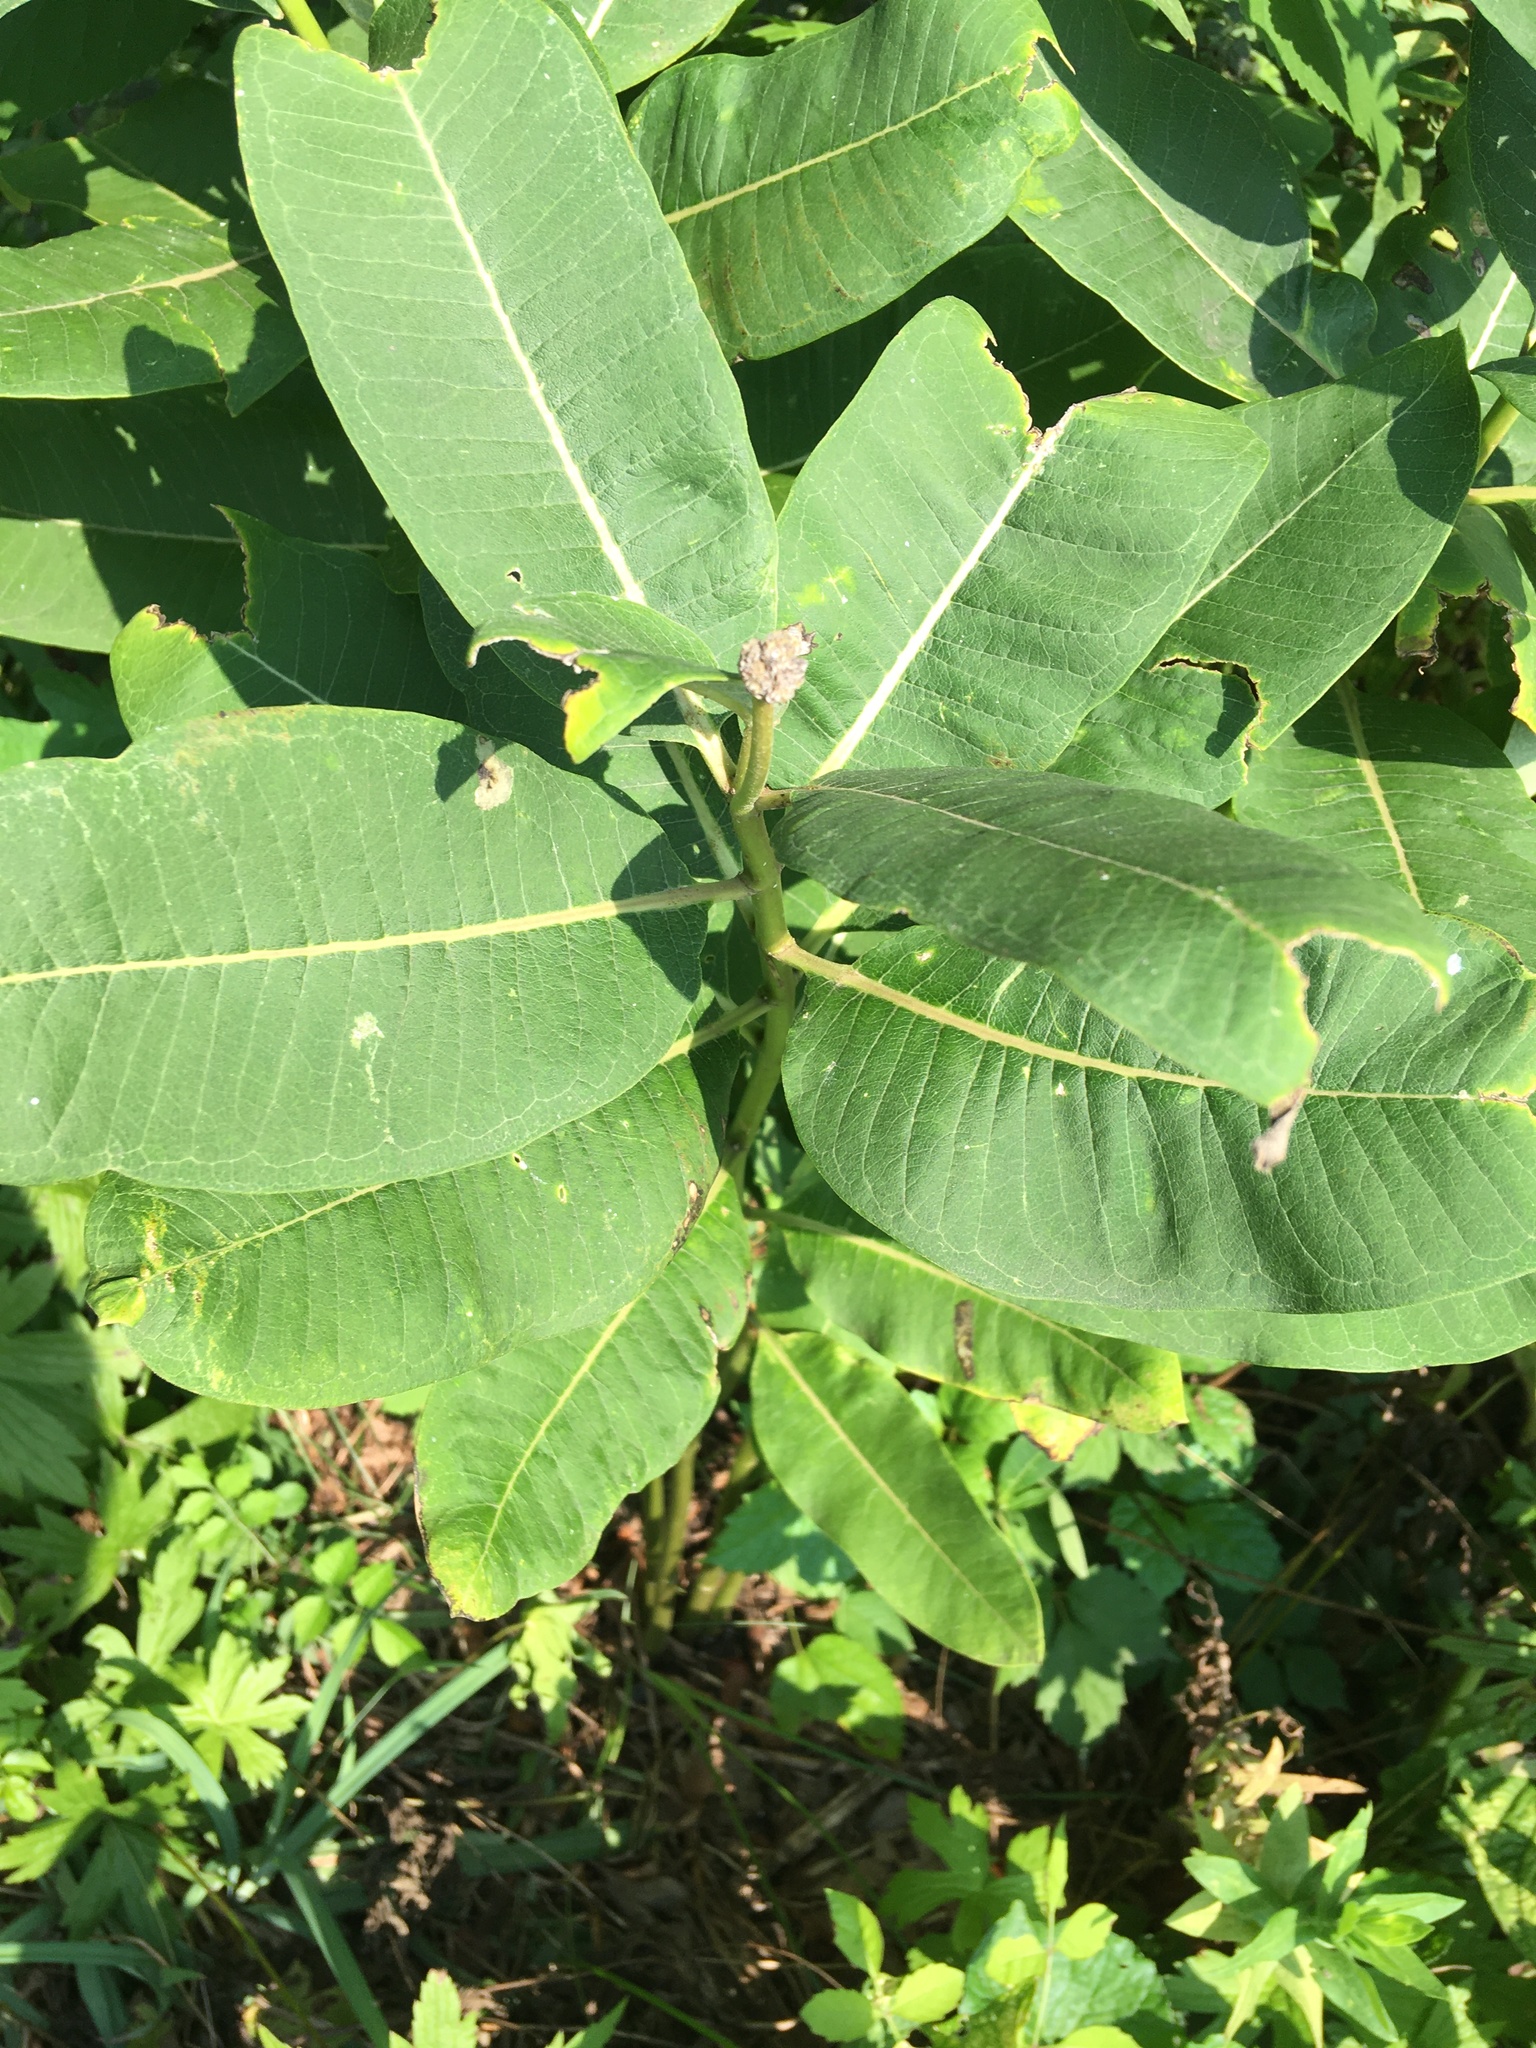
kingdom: Plantae
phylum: Tracheophyta
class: Magnoliopsida
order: Gentianales
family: Apocynaceae
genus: Asclepias
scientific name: Asclepias syriaca
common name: Common milkweed
